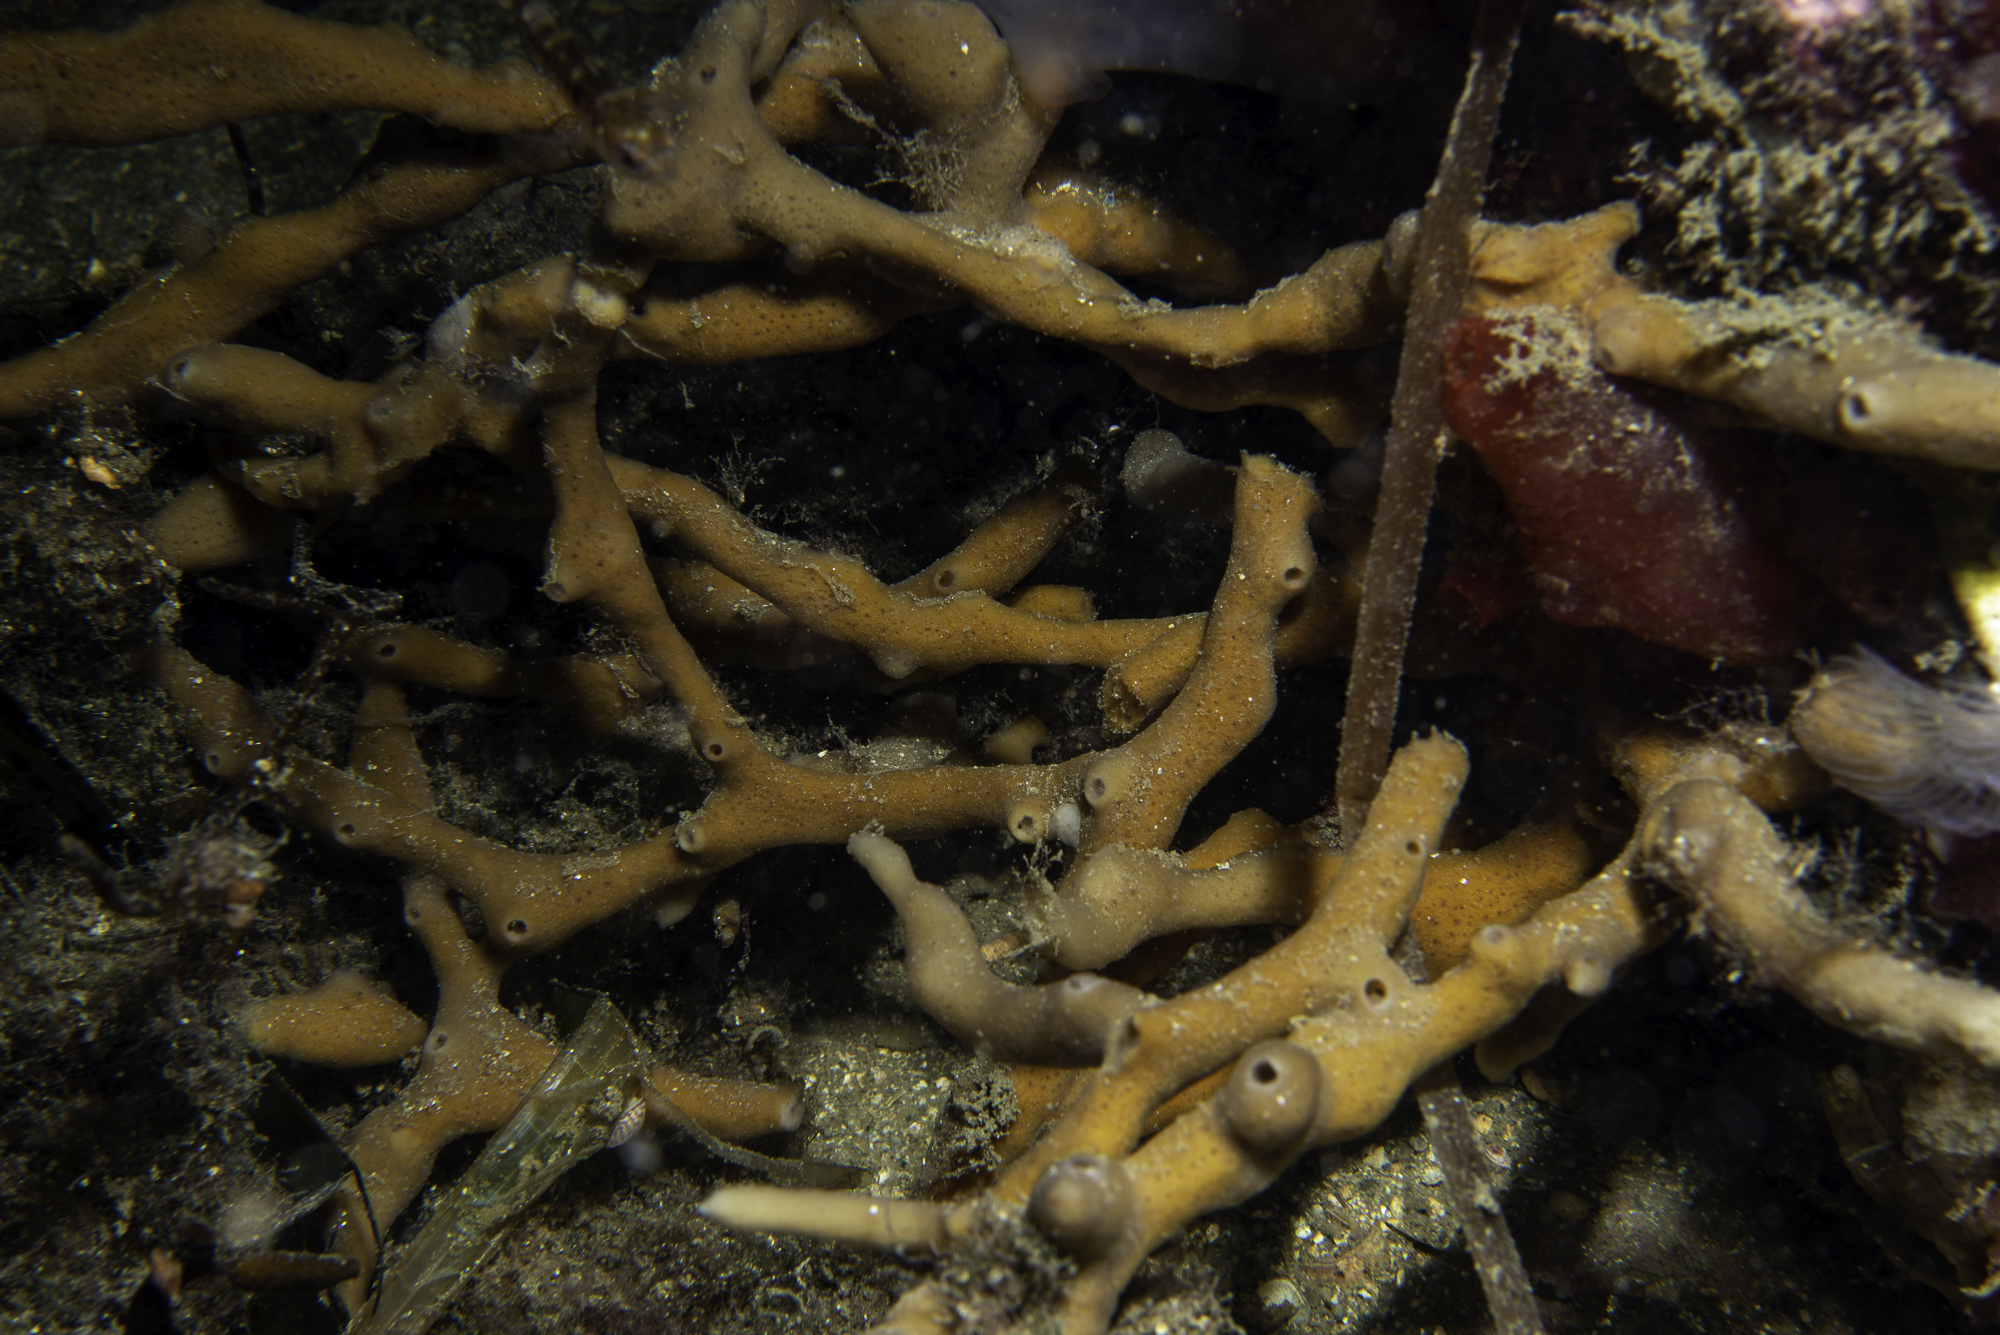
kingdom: Animalia
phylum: Porifera
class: Demospongiae
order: Haplosclerida
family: Chalinidae
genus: Haliclona
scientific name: Haliclona simulans
